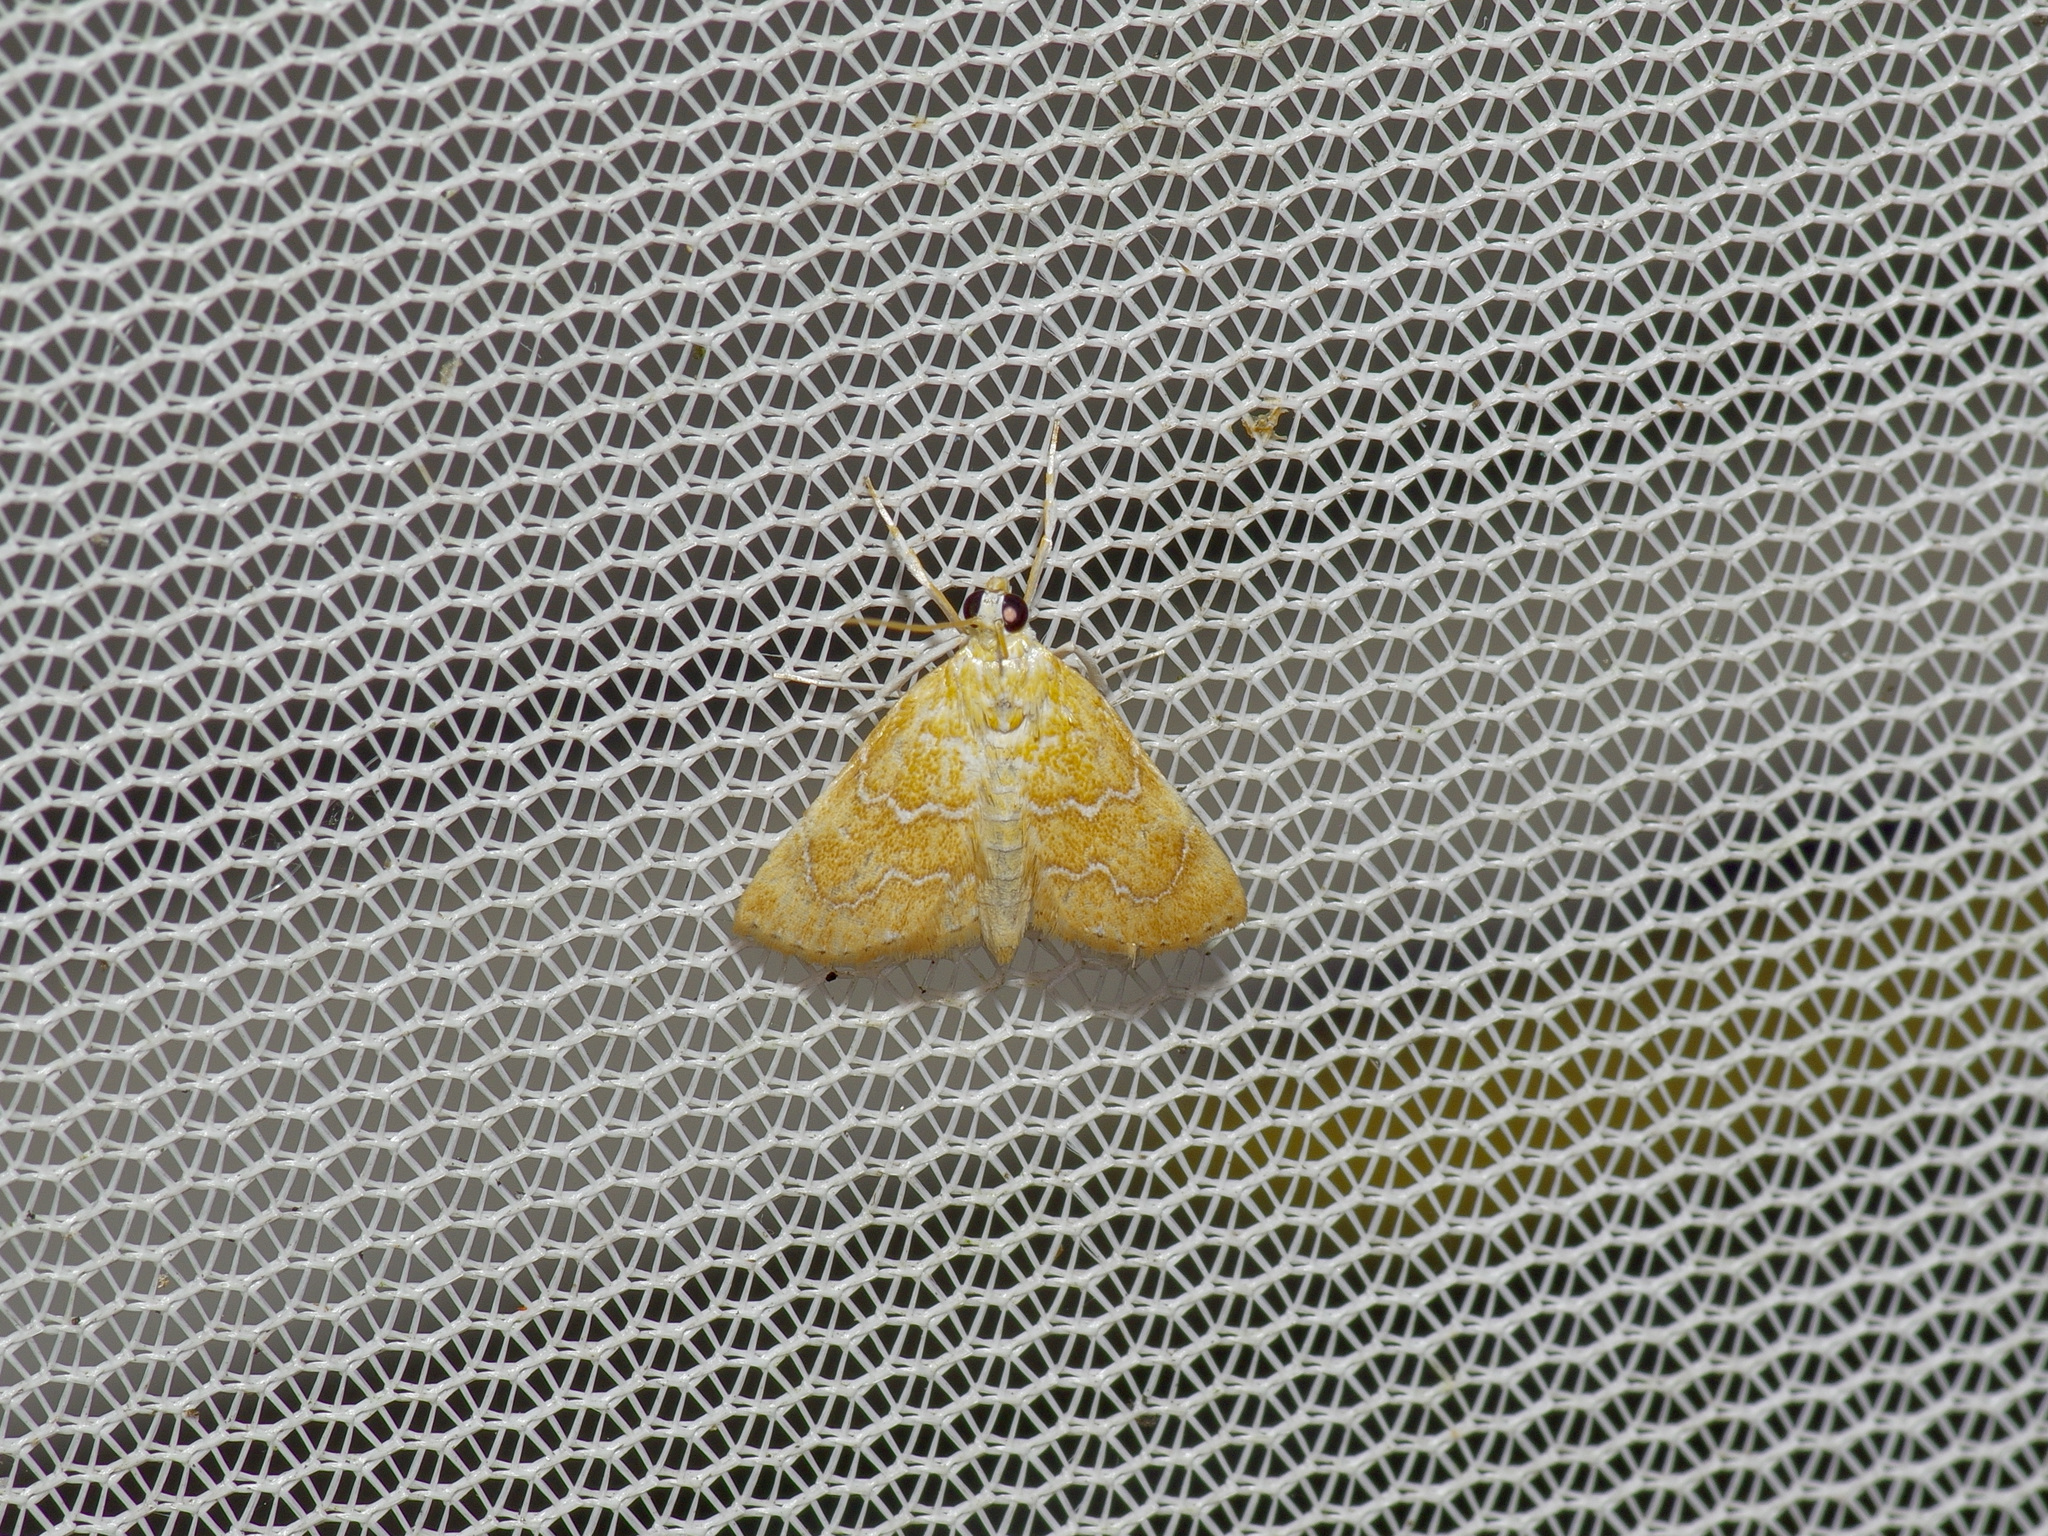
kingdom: Animalia
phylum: Arthropoda
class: Insecta
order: Lepidoptera
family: Crambidae
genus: Glaphyria
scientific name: Glaphyria sesquistrialis
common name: White-roped glaphyria
